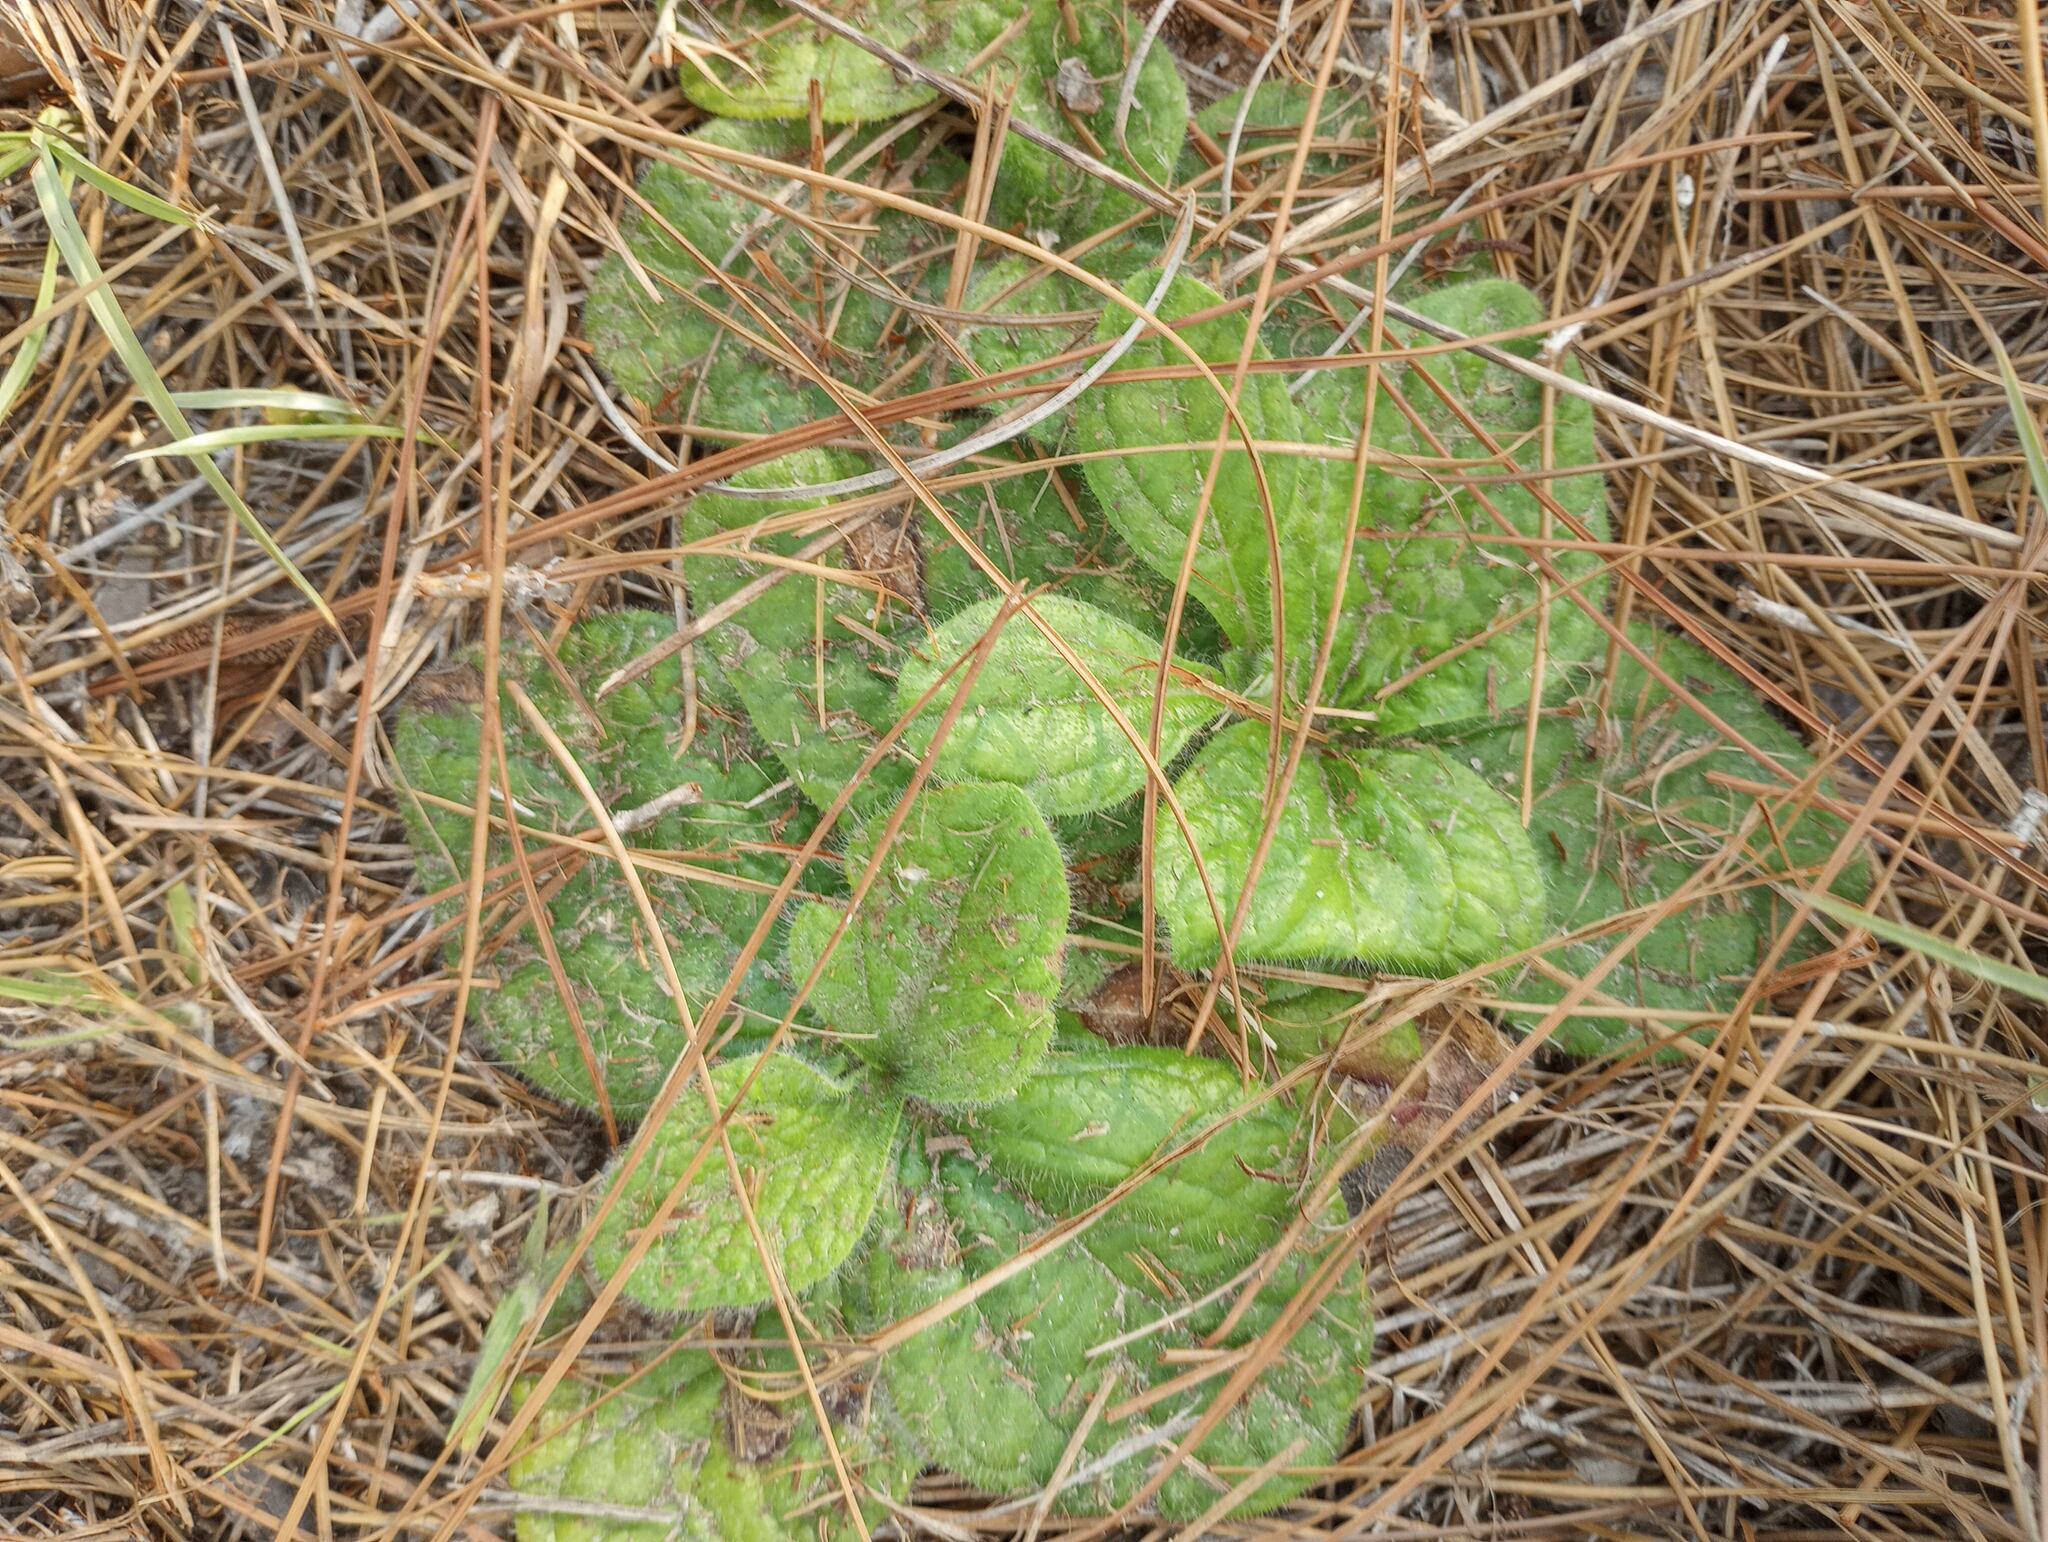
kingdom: Plantae
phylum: Tracheophyta
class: Magnoliopsida
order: Asterales
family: Asteraceae
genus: Helianthus
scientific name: Helianthus radula
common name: Pineland sunflower
